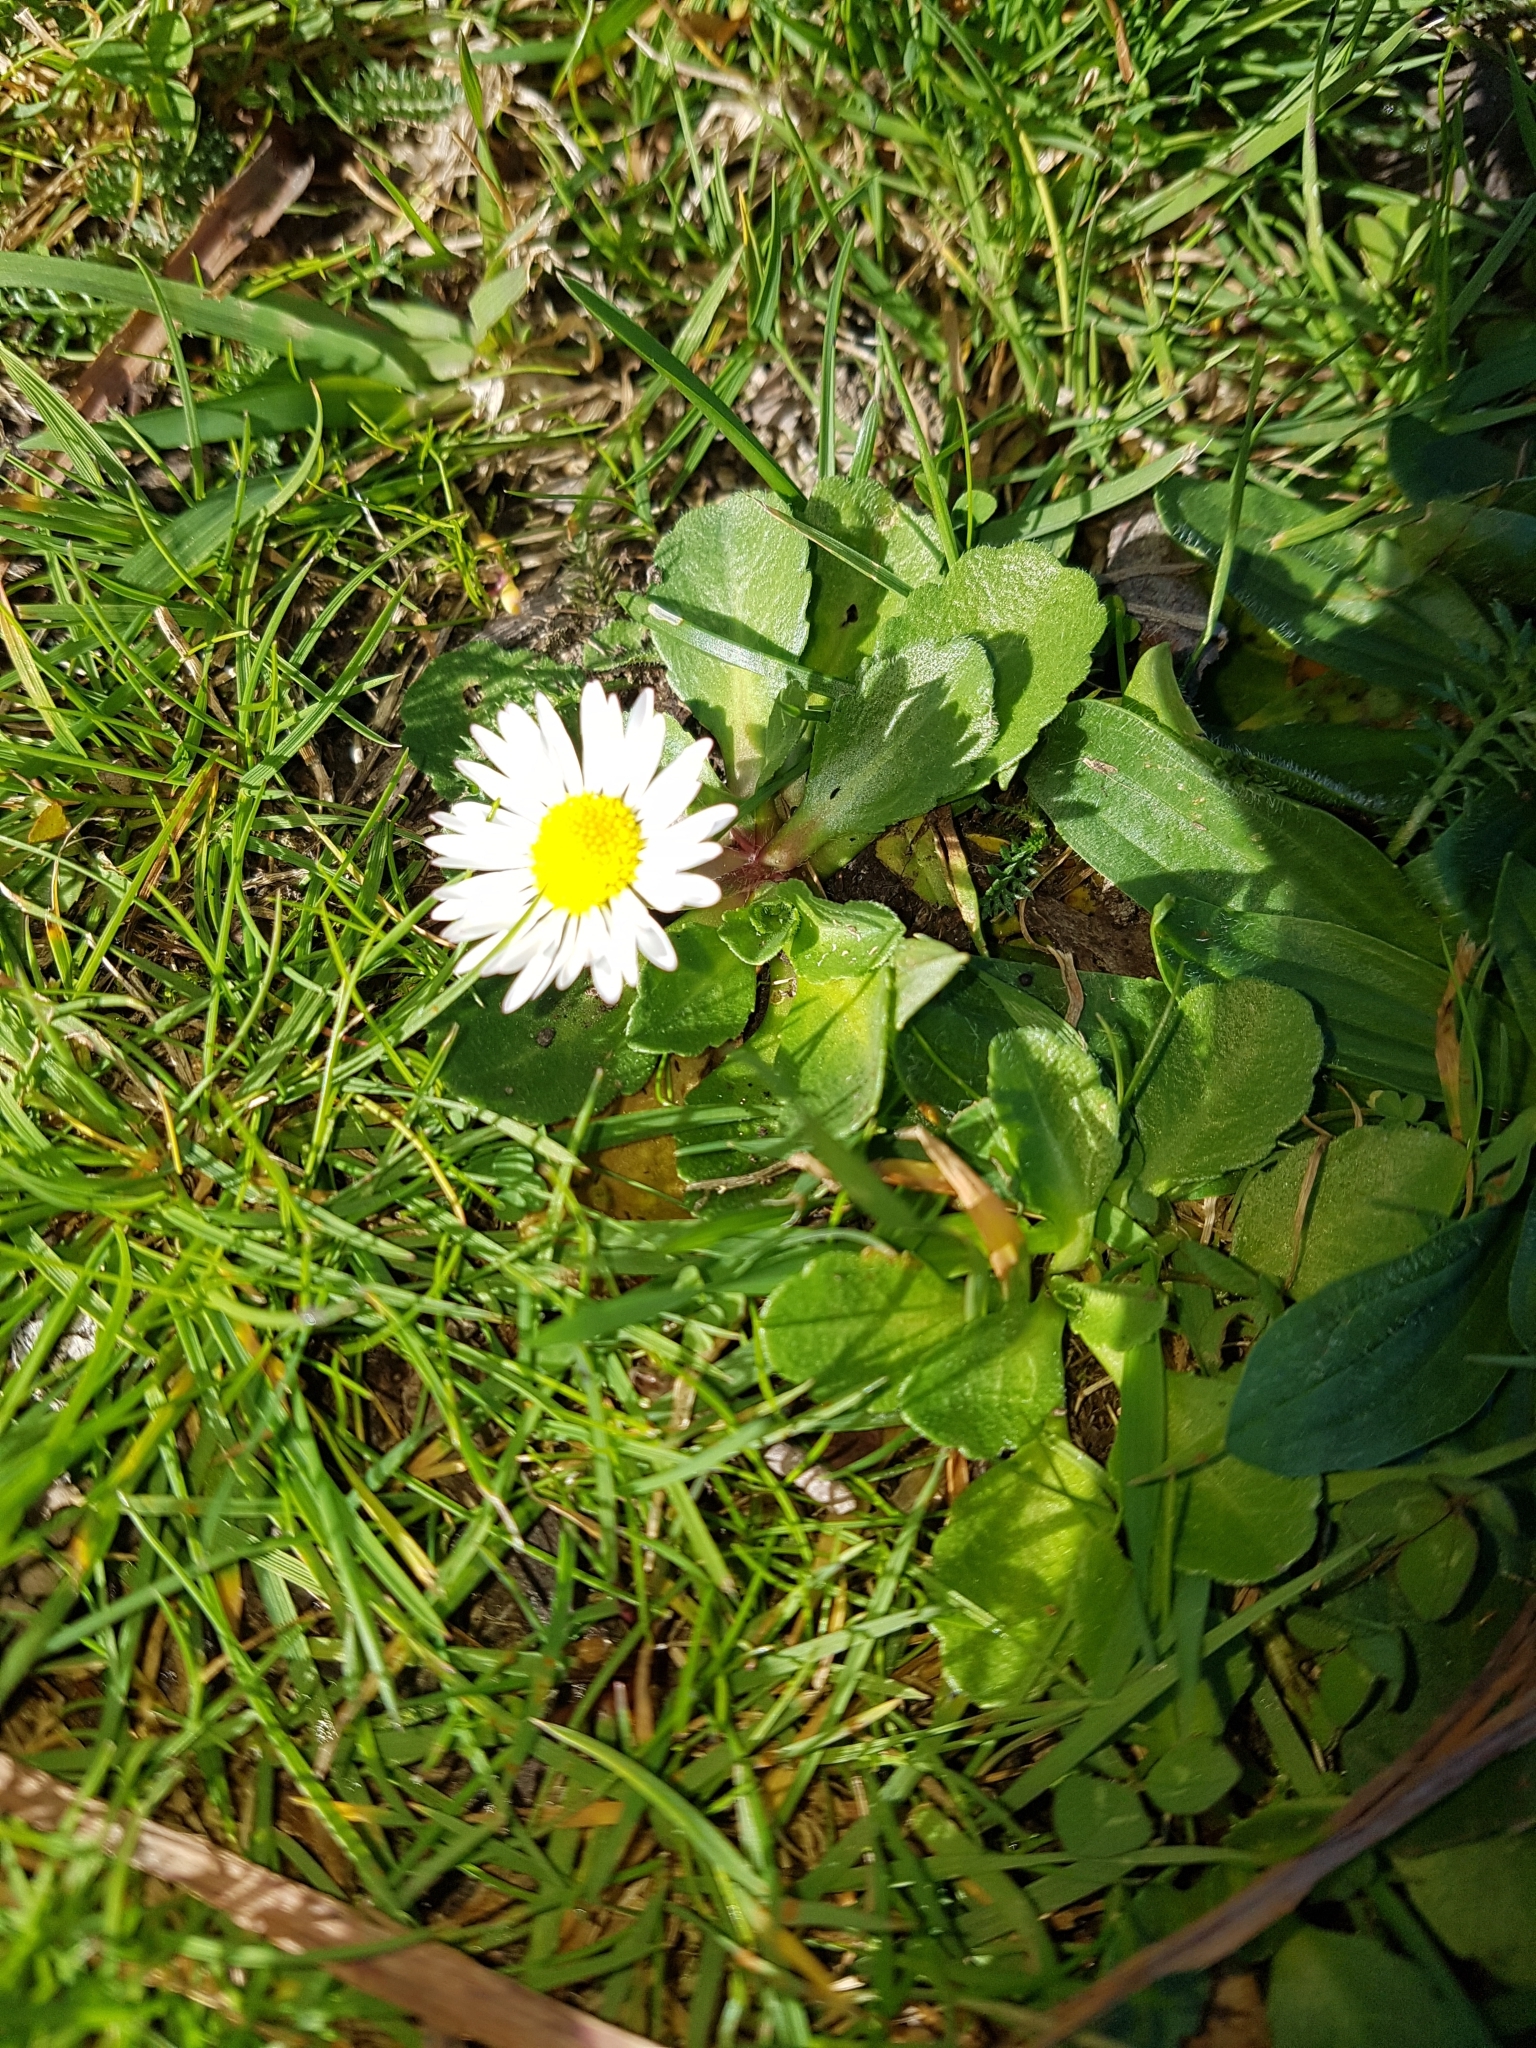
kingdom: Plantae
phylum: Tracheophyta
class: Magnoliopsida
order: Asterales
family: Asteraceae
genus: Bellis
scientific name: Bellis perennis
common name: Lawndaisy
